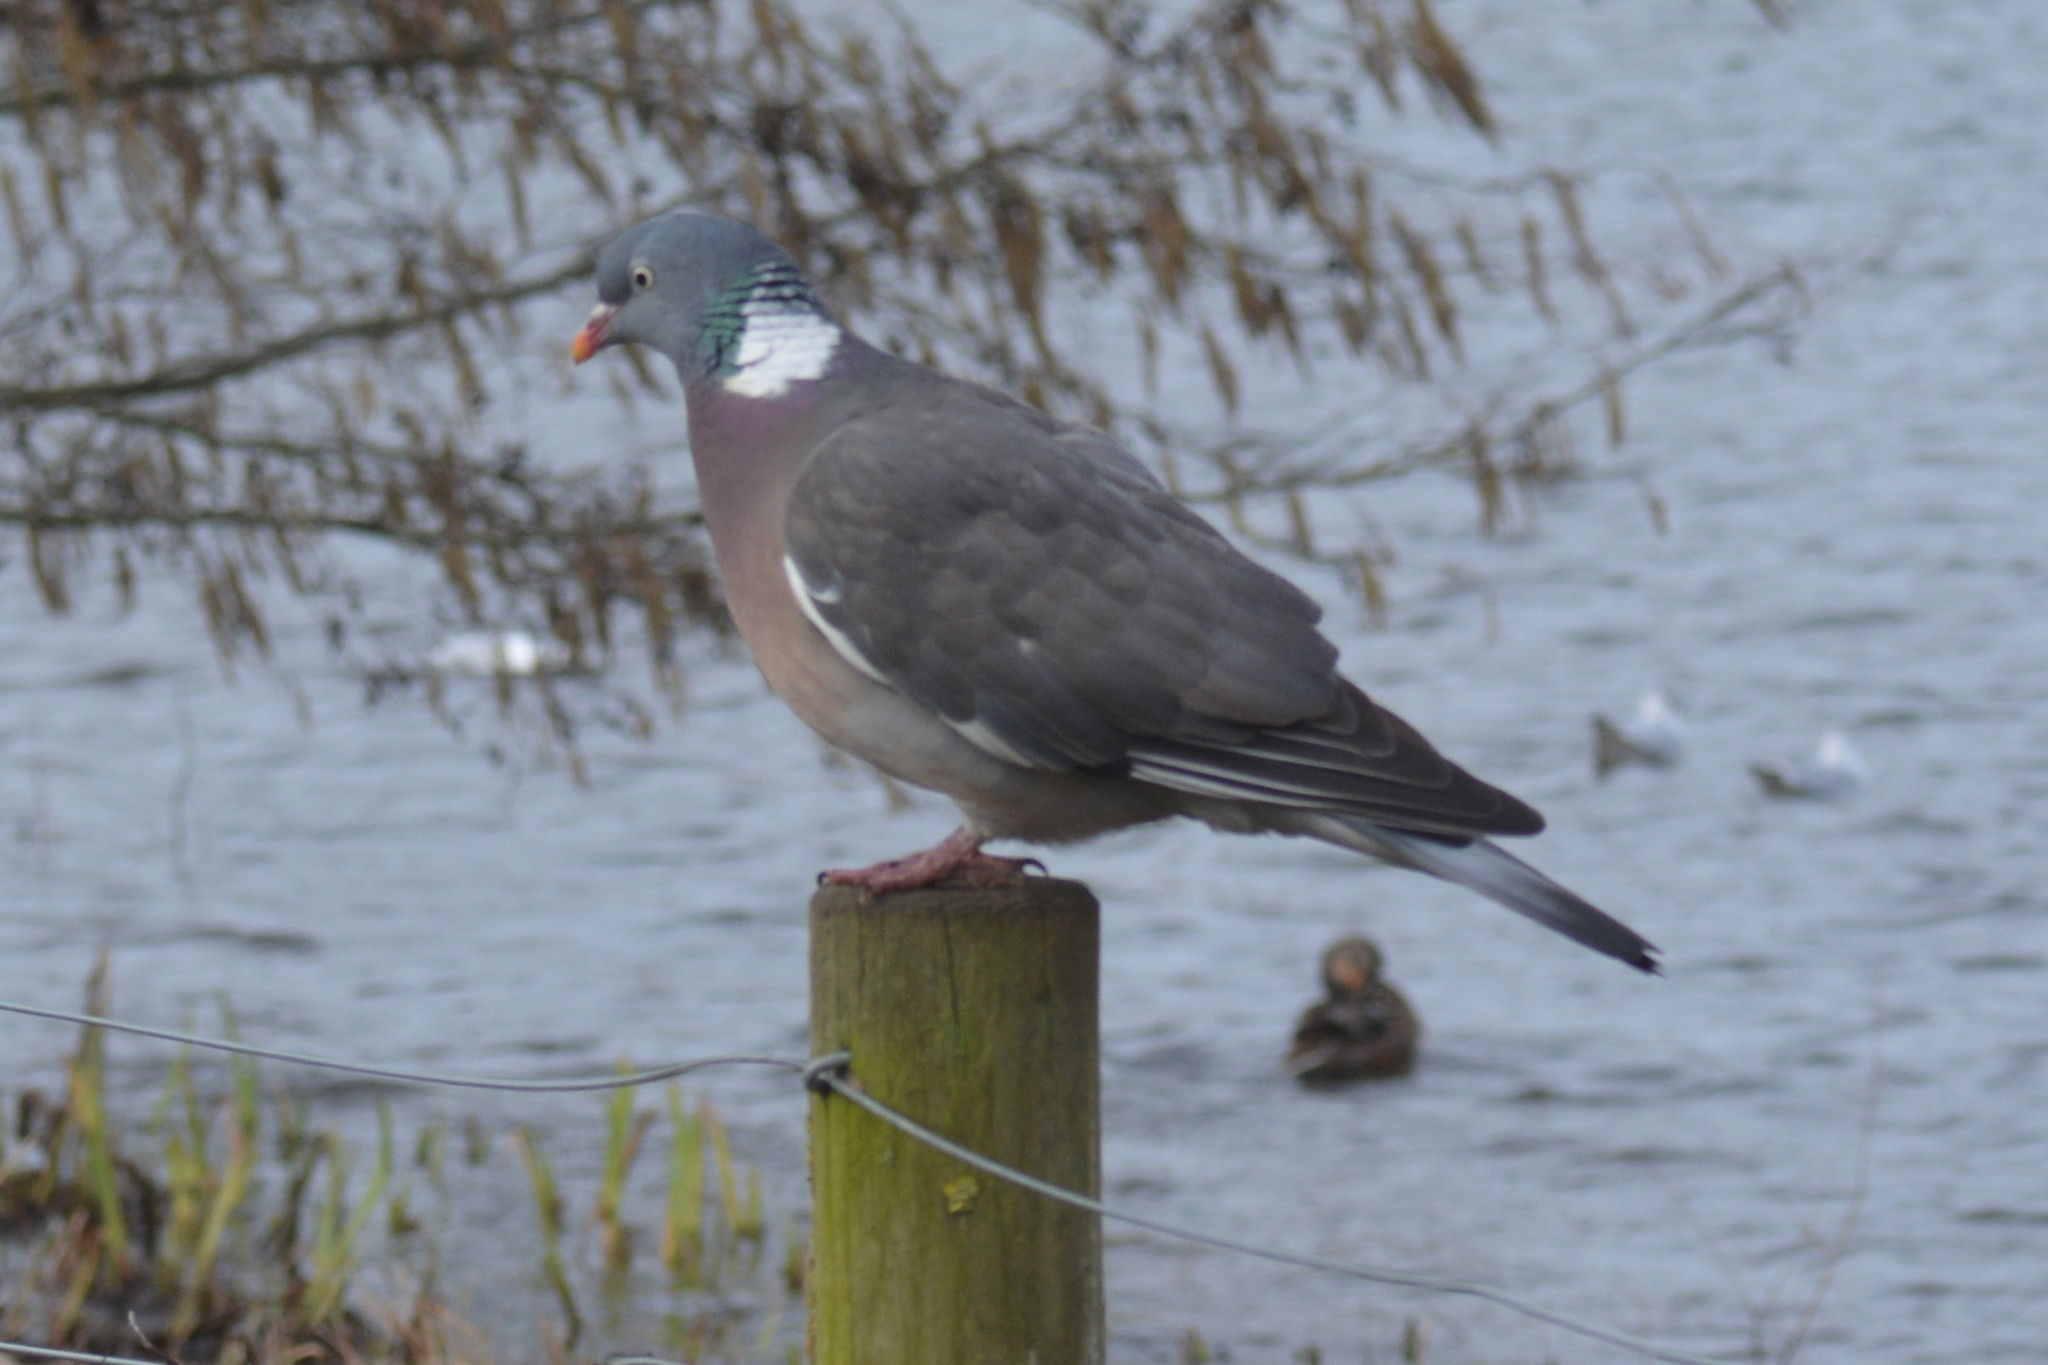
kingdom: Animalia
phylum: Chordata
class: Aves
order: Columbiformes
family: Columbidae
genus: Columba
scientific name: Columba palumbus
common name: Common wood pigeon
